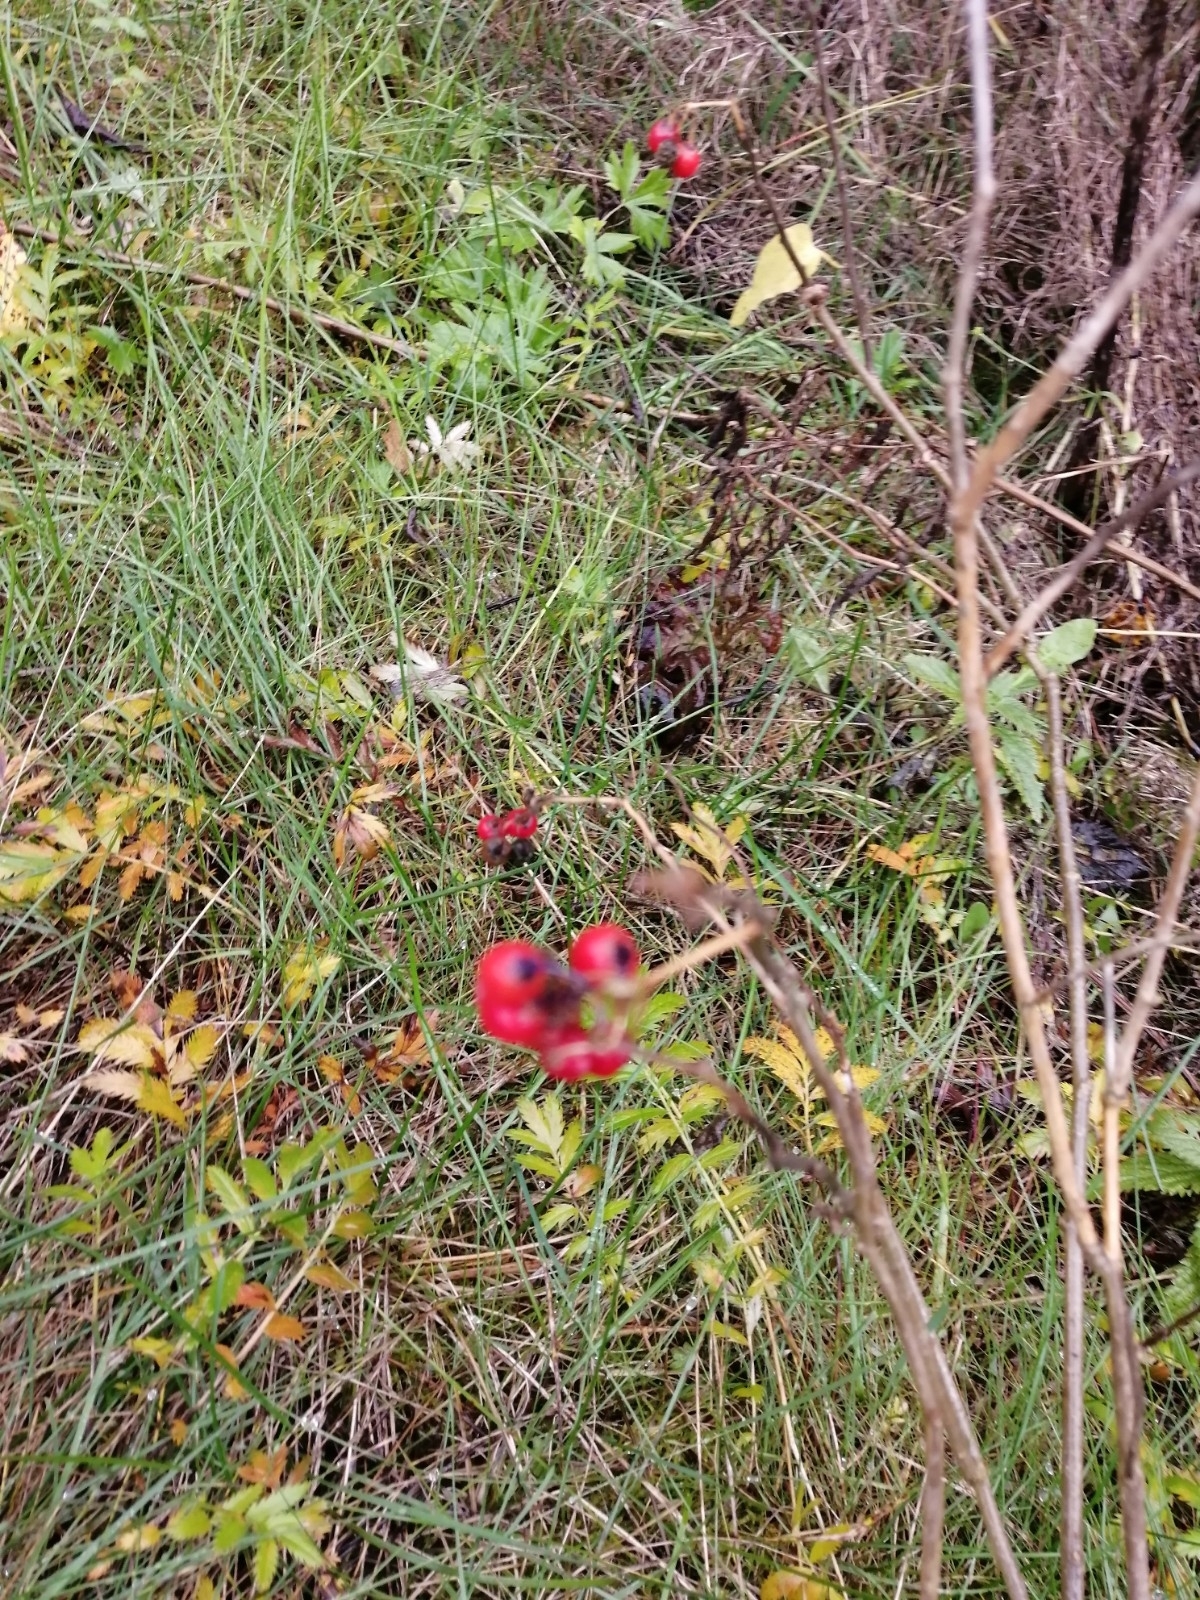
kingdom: Plantae
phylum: Tracheophyta
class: Magnoliopsida
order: Solanales
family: Solanaceae
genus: Solanum
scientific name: Solanum dulcamara
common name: Climbing nightshade
